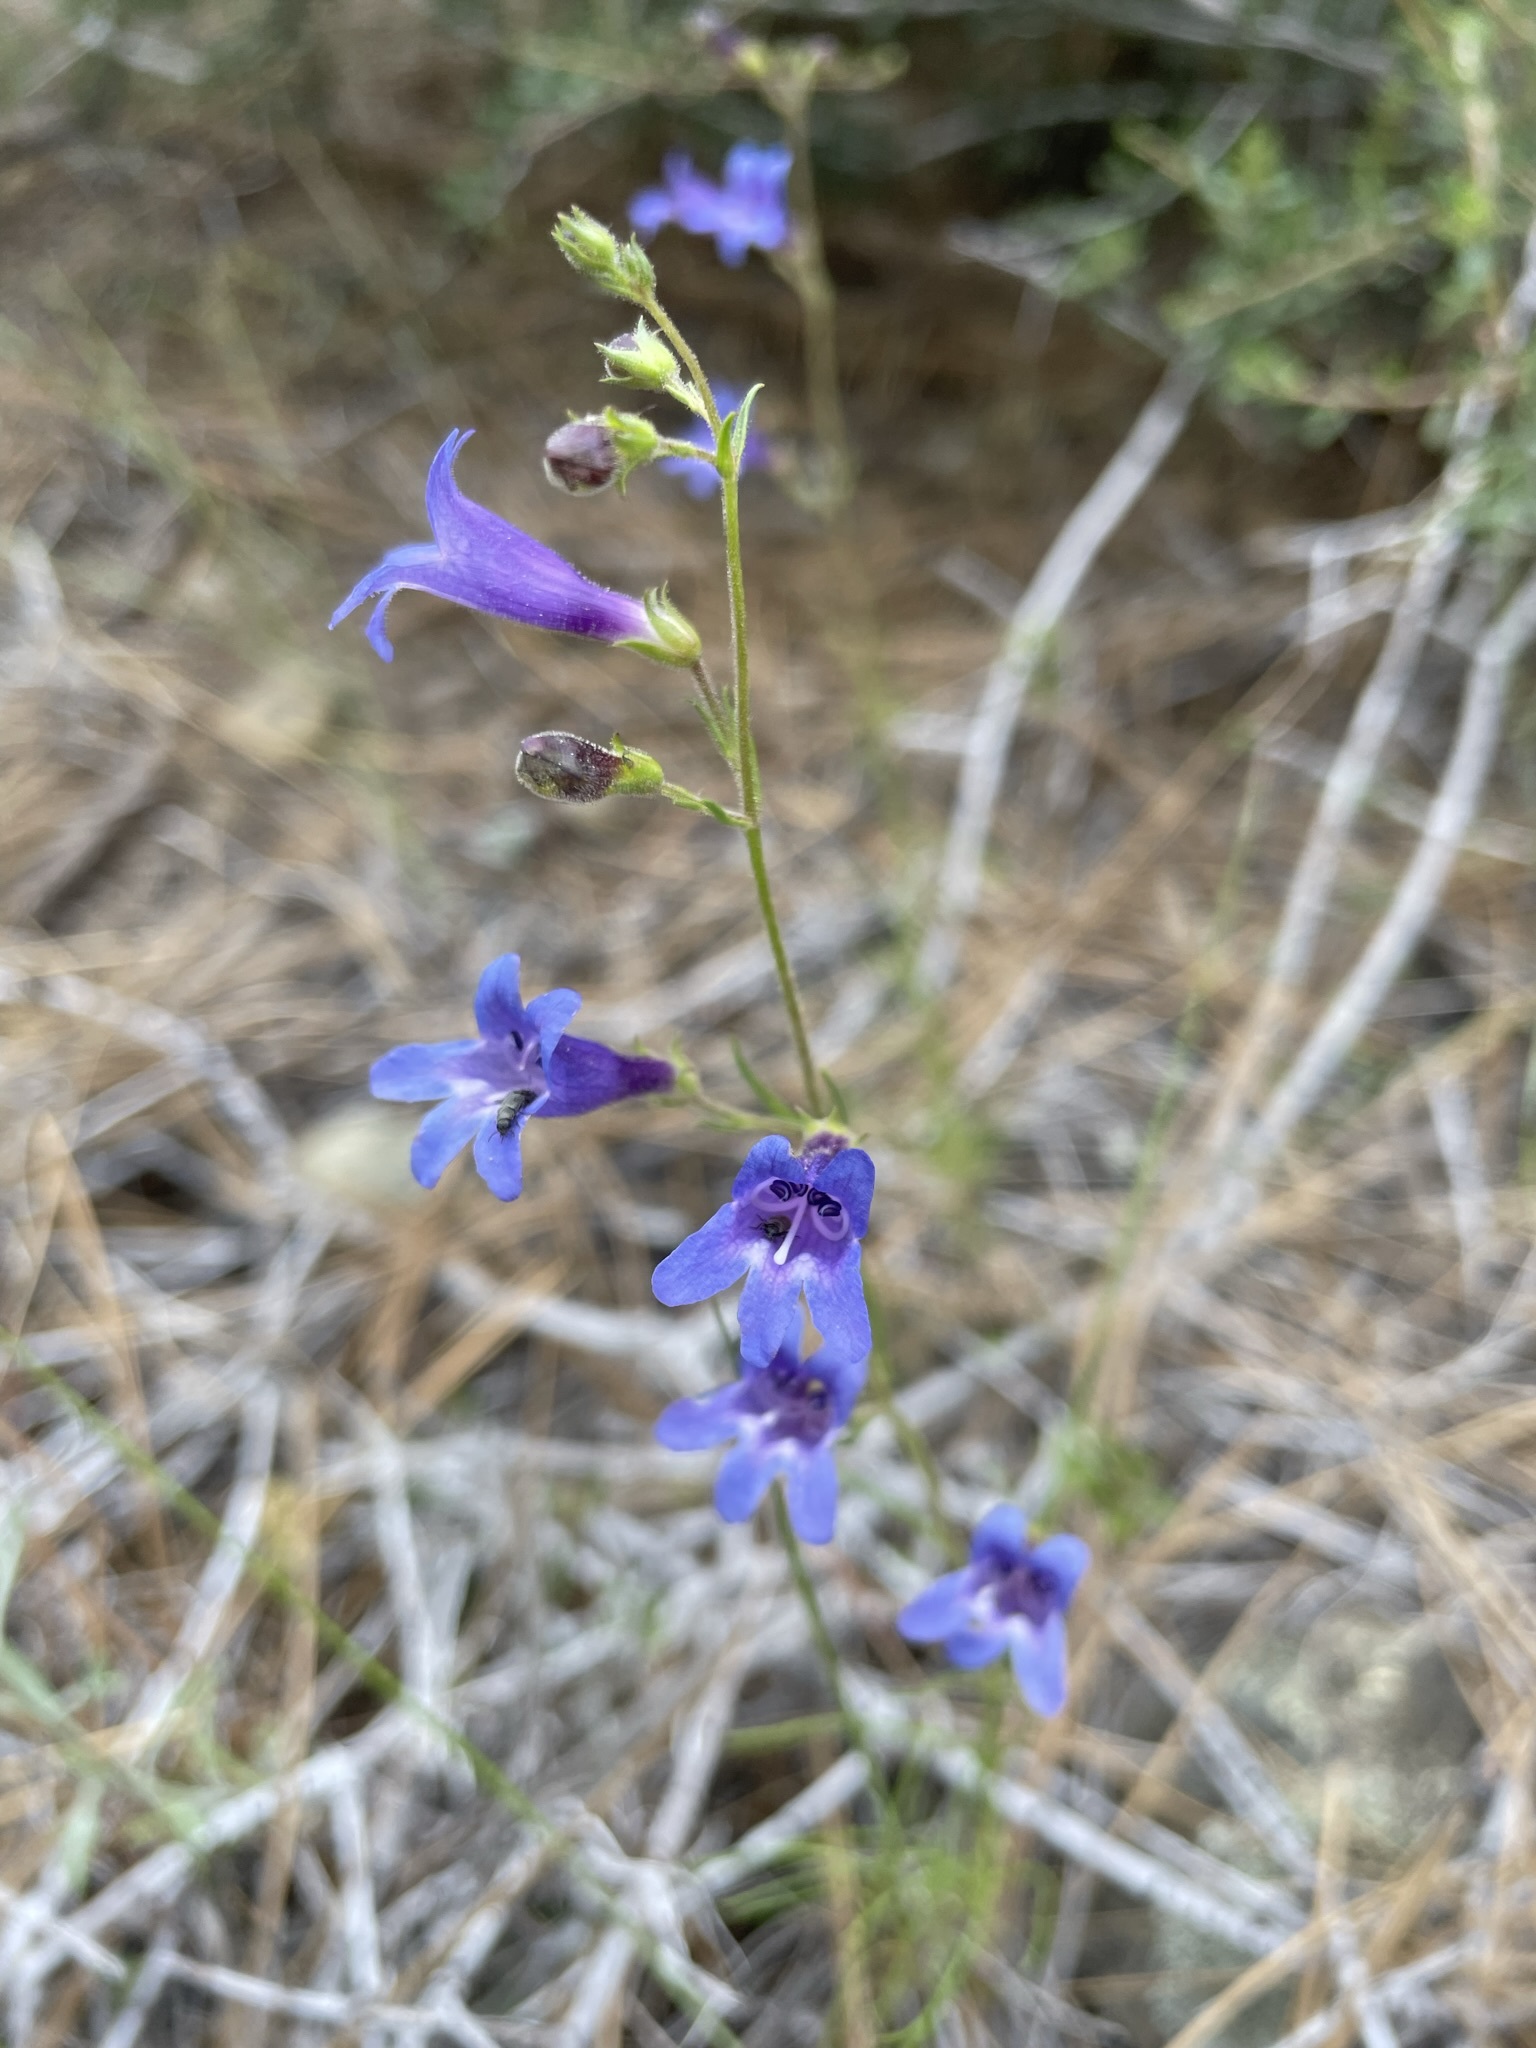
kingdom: Plantae
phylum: Tracheophyta
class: Magnoliopsida
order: Lamiales
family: Plantaginaceae
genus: Penstemon
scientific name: Penstemon filiformis
